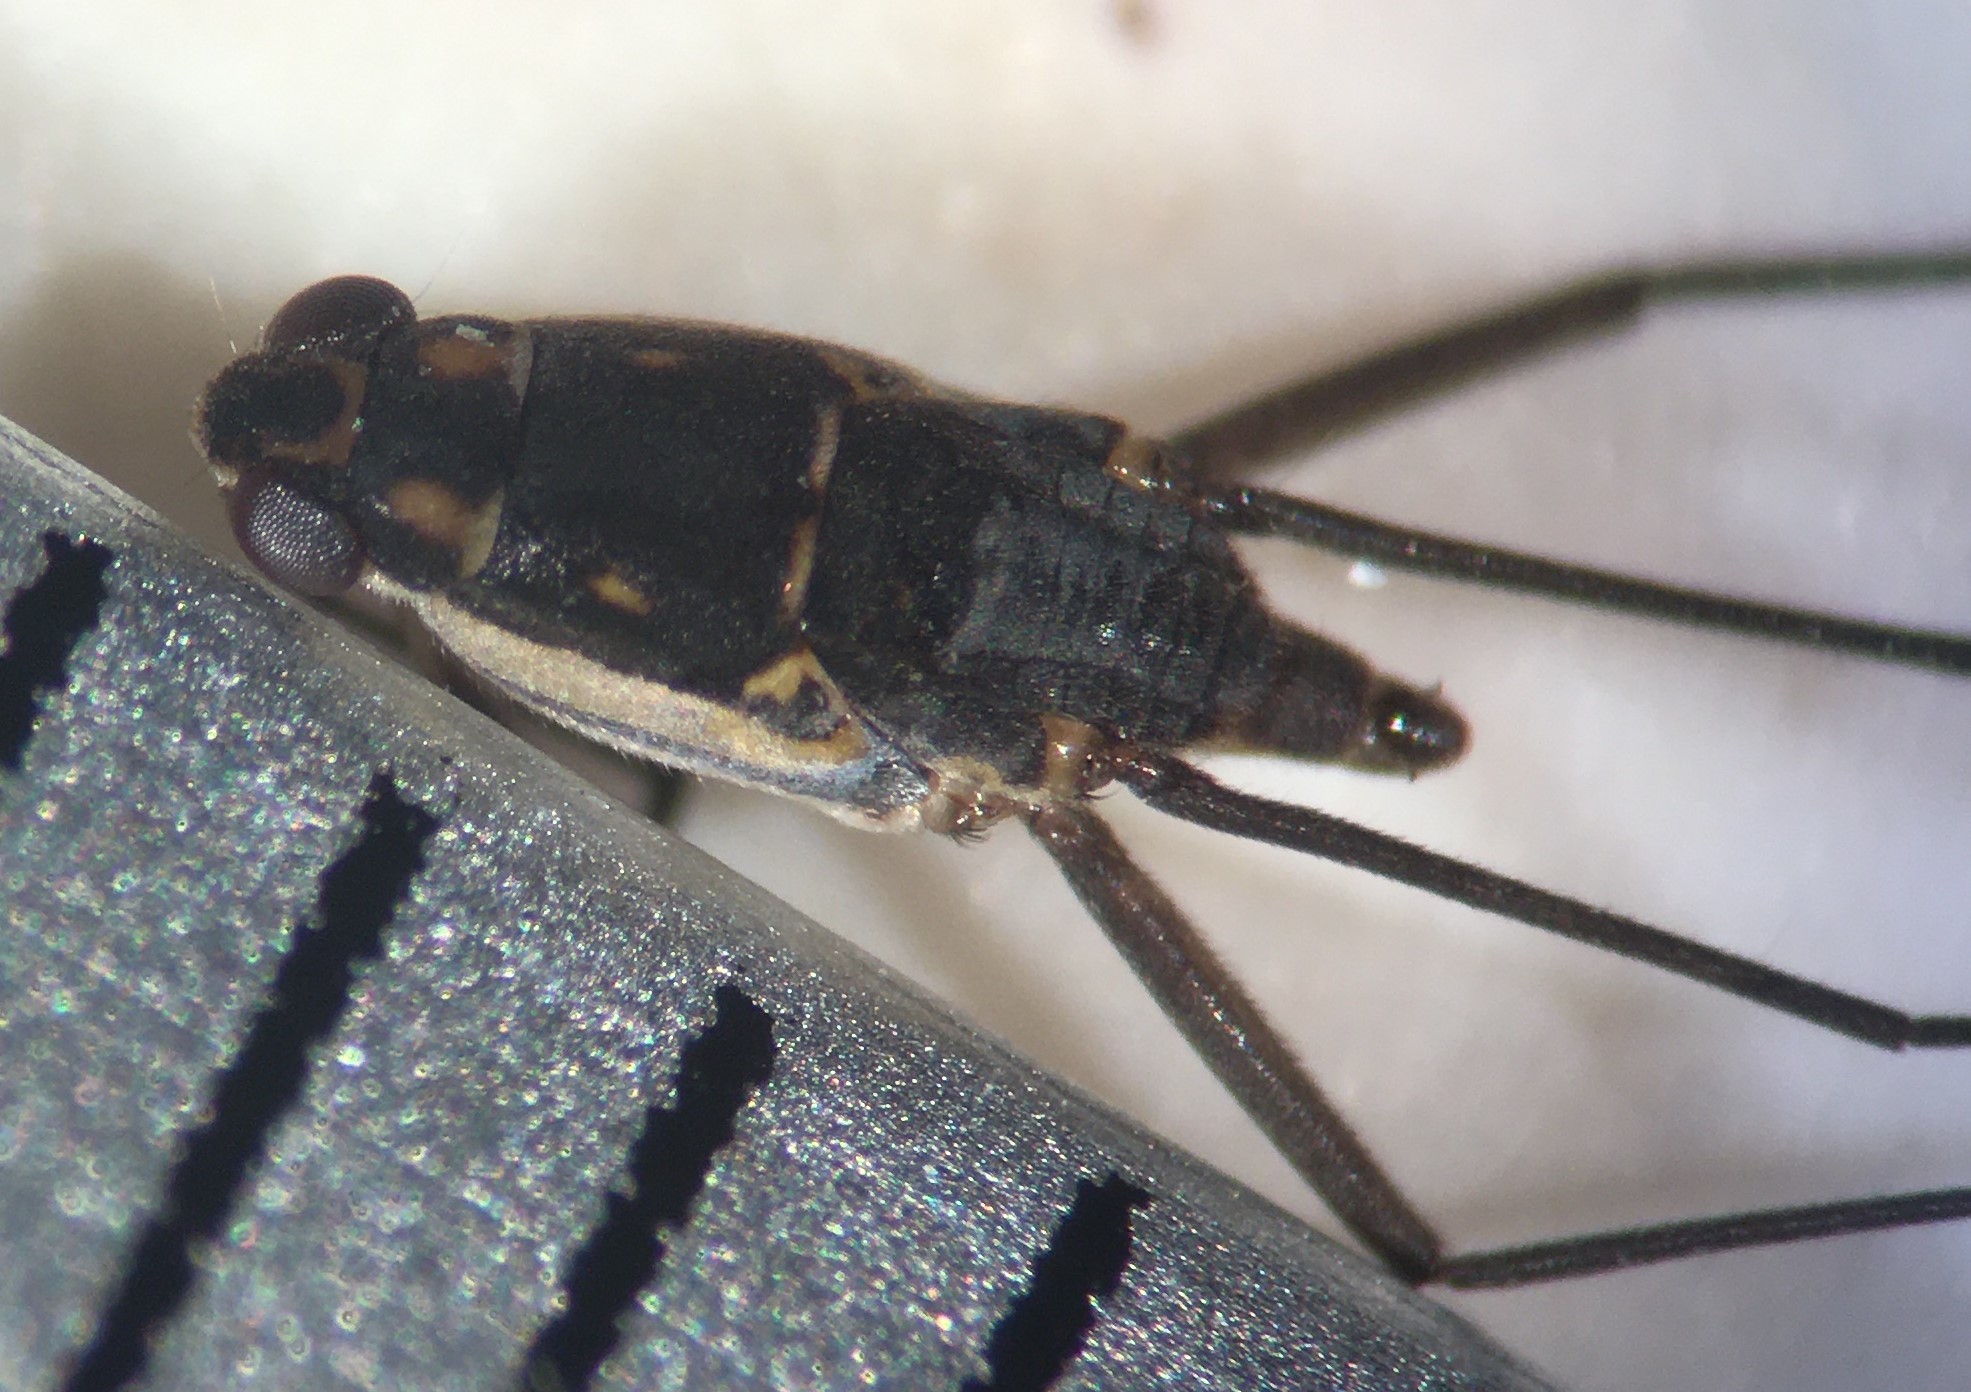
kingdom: Animalia
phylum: Arthropoda
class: Insecta
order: Hemiptera
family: Gerridae
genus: Trepobates
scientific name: Trepobates floridensis
